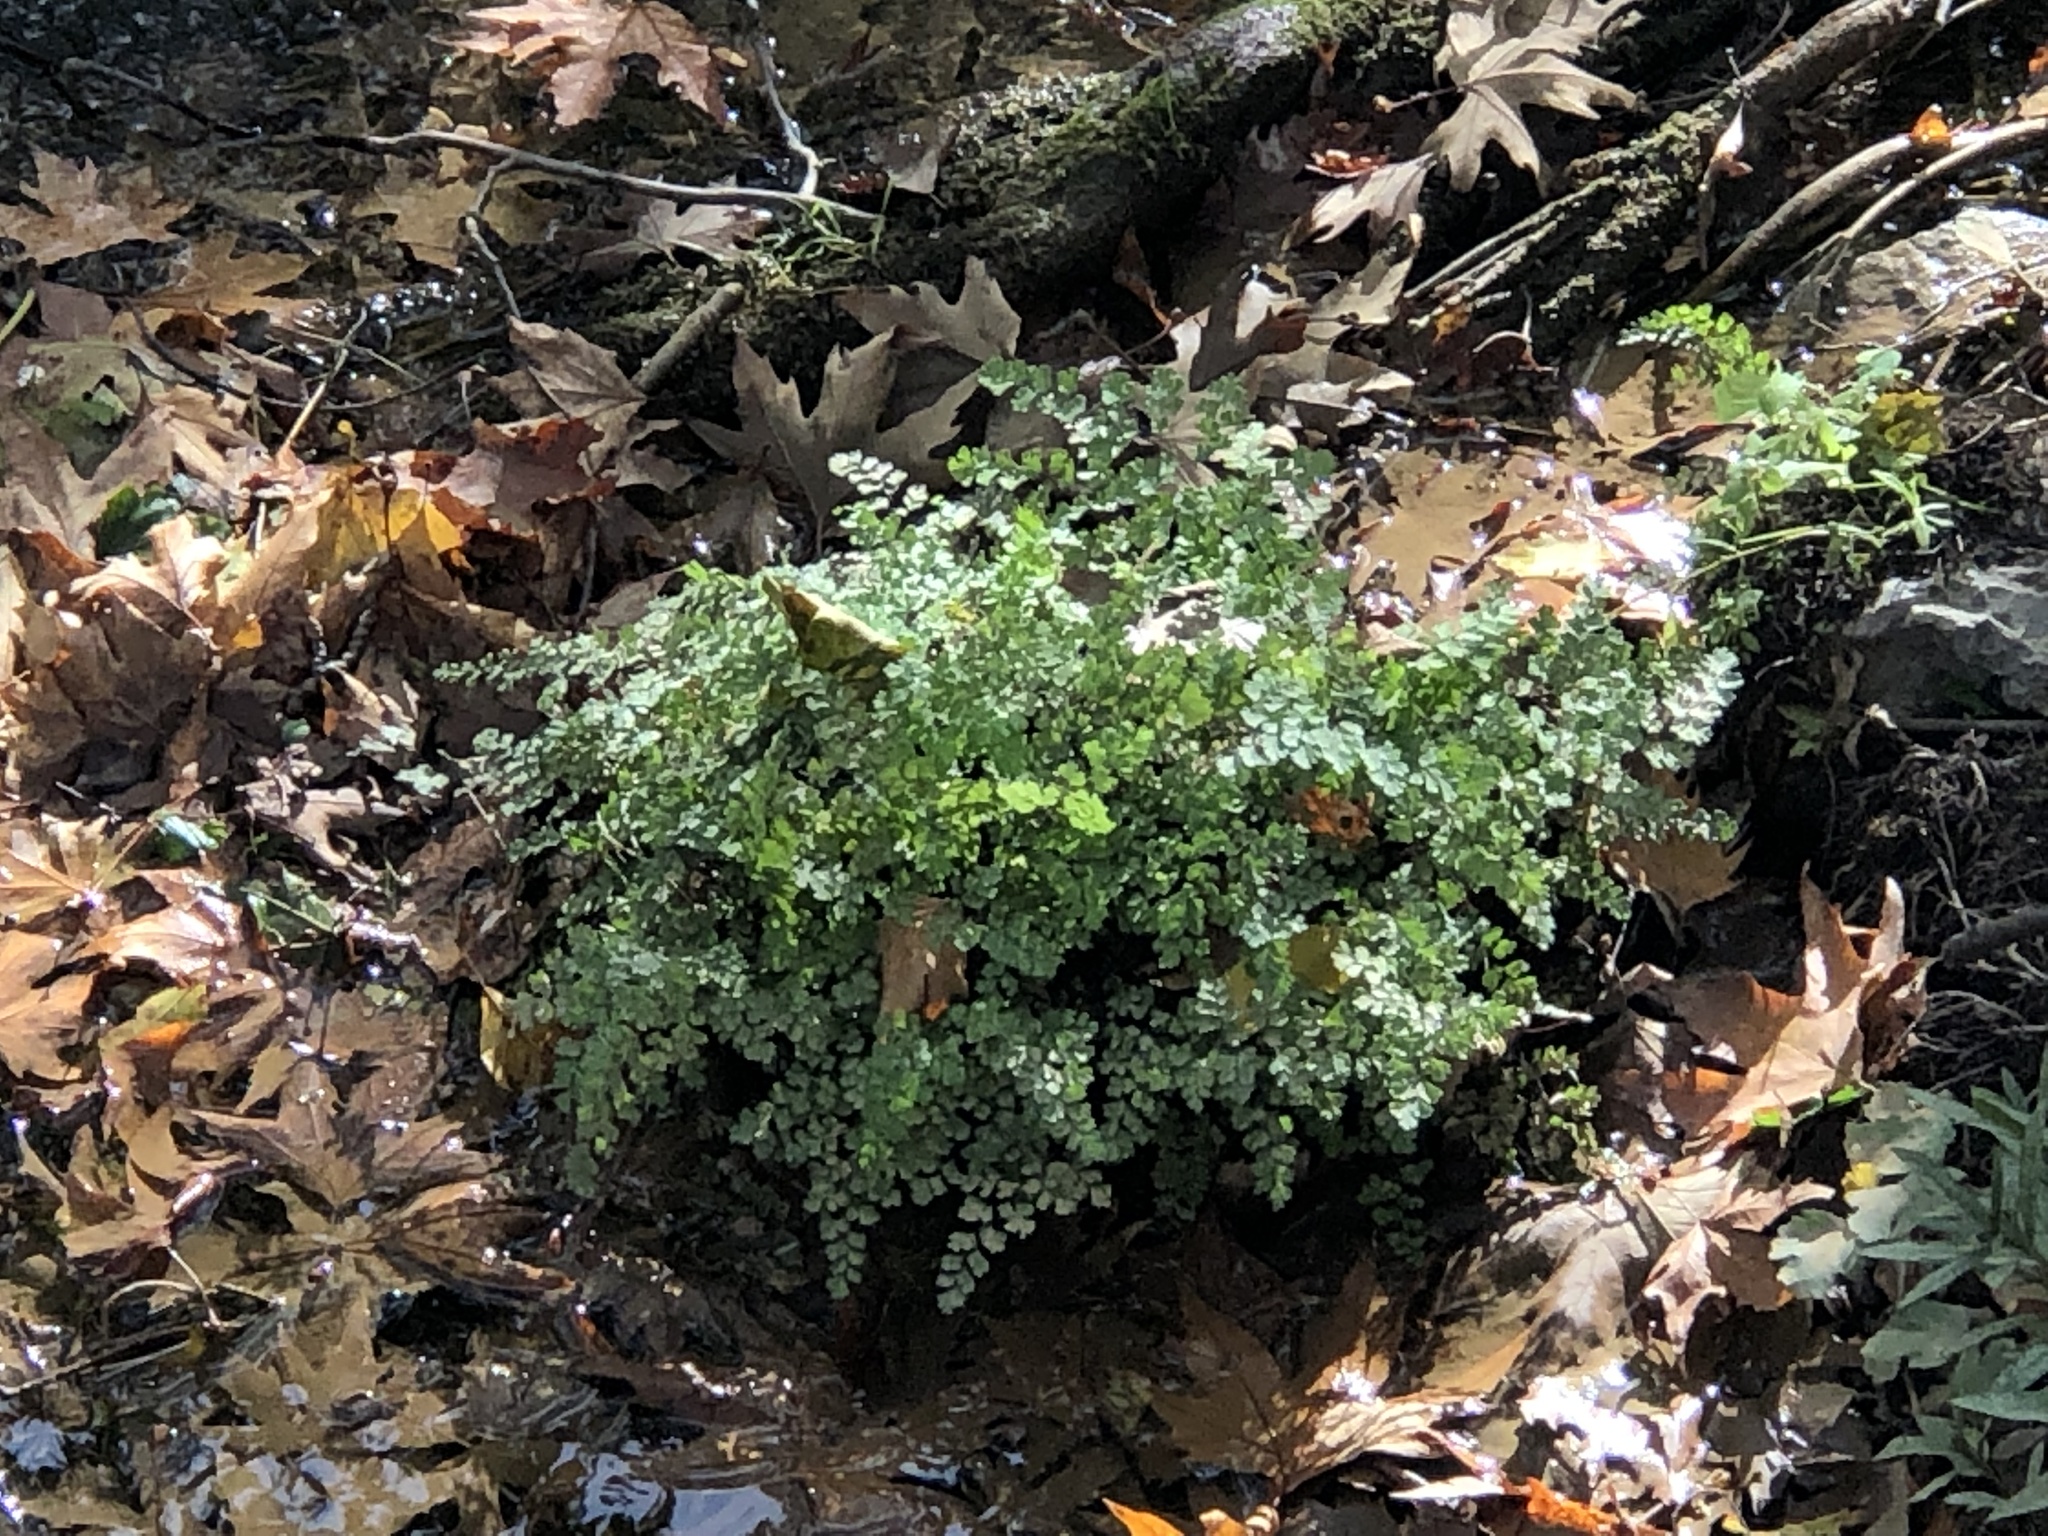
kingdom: Plantae
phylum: Tracheophyta
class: Polypodiopsida
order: Polypodiales
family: Pteridaceae
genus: Adiantum
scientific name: Adiantum capillus-veneris
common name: Maidenhair fern
